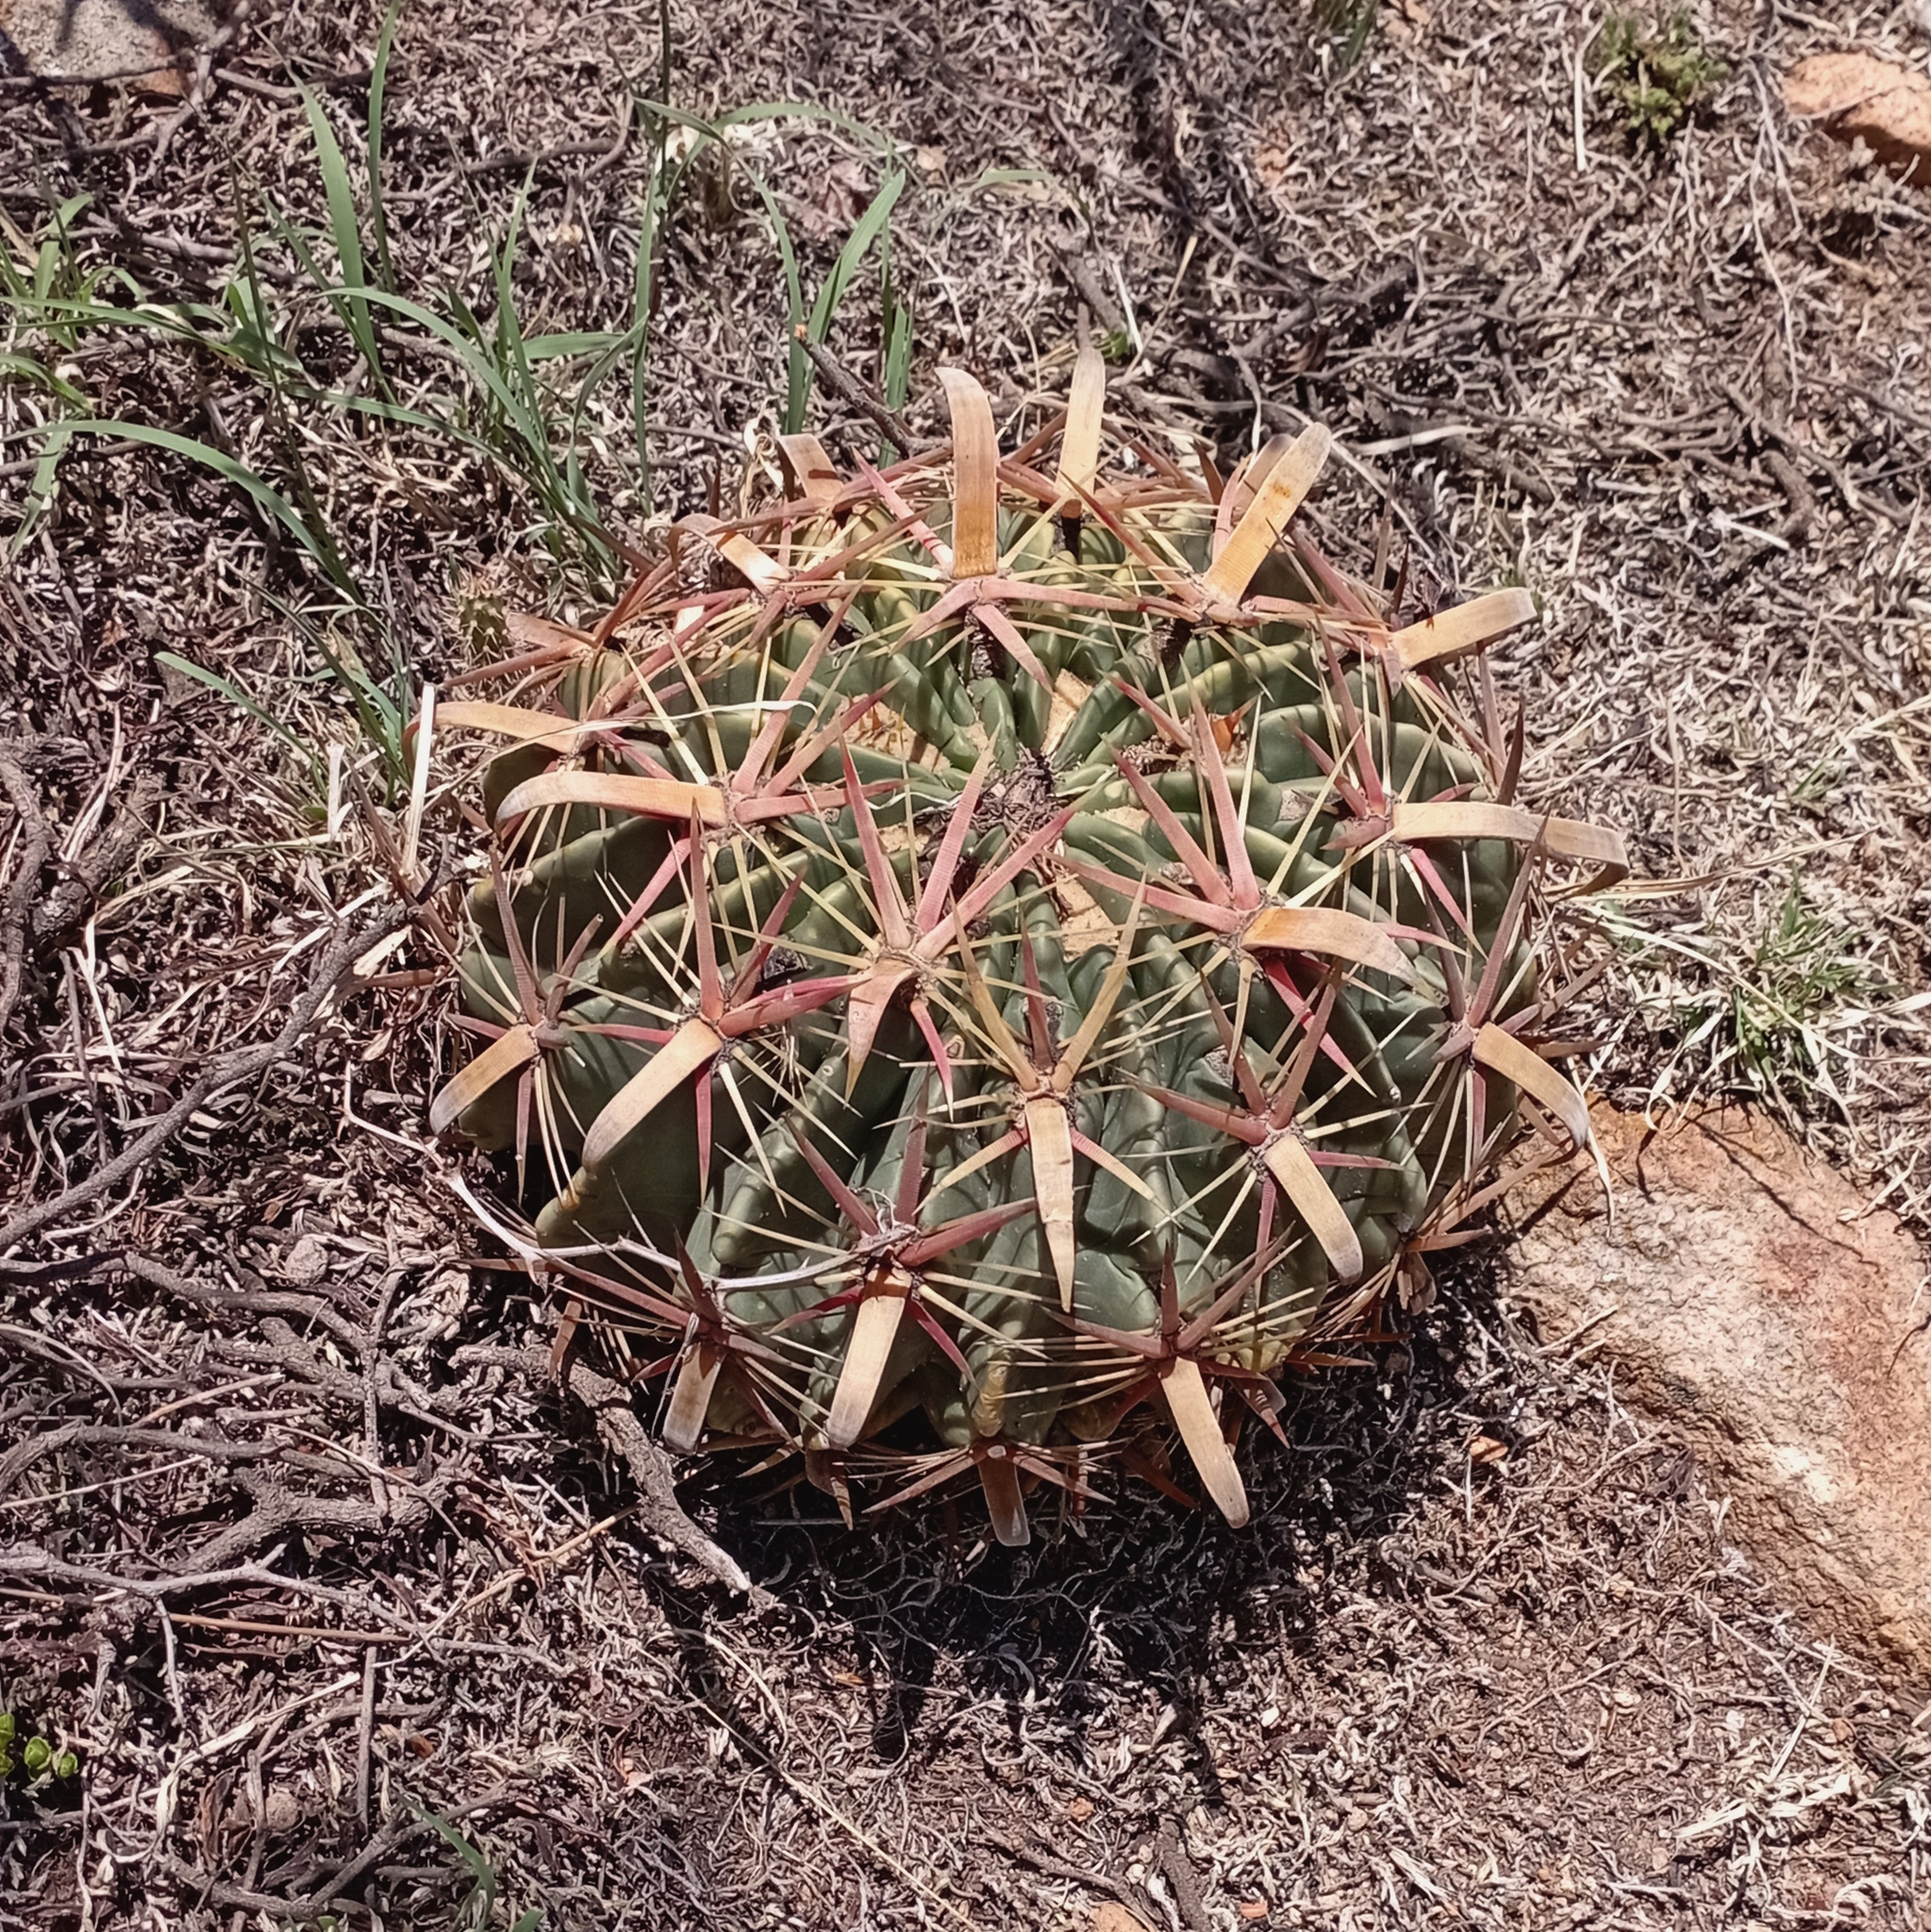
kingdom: Plantae
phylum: Tracheophyta
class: Magnoliopsida
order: Caryophyllales
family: Cactaceae
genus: Ferocactus
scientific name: Ferocactus latispinus
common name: Devil's-tongue cactus
